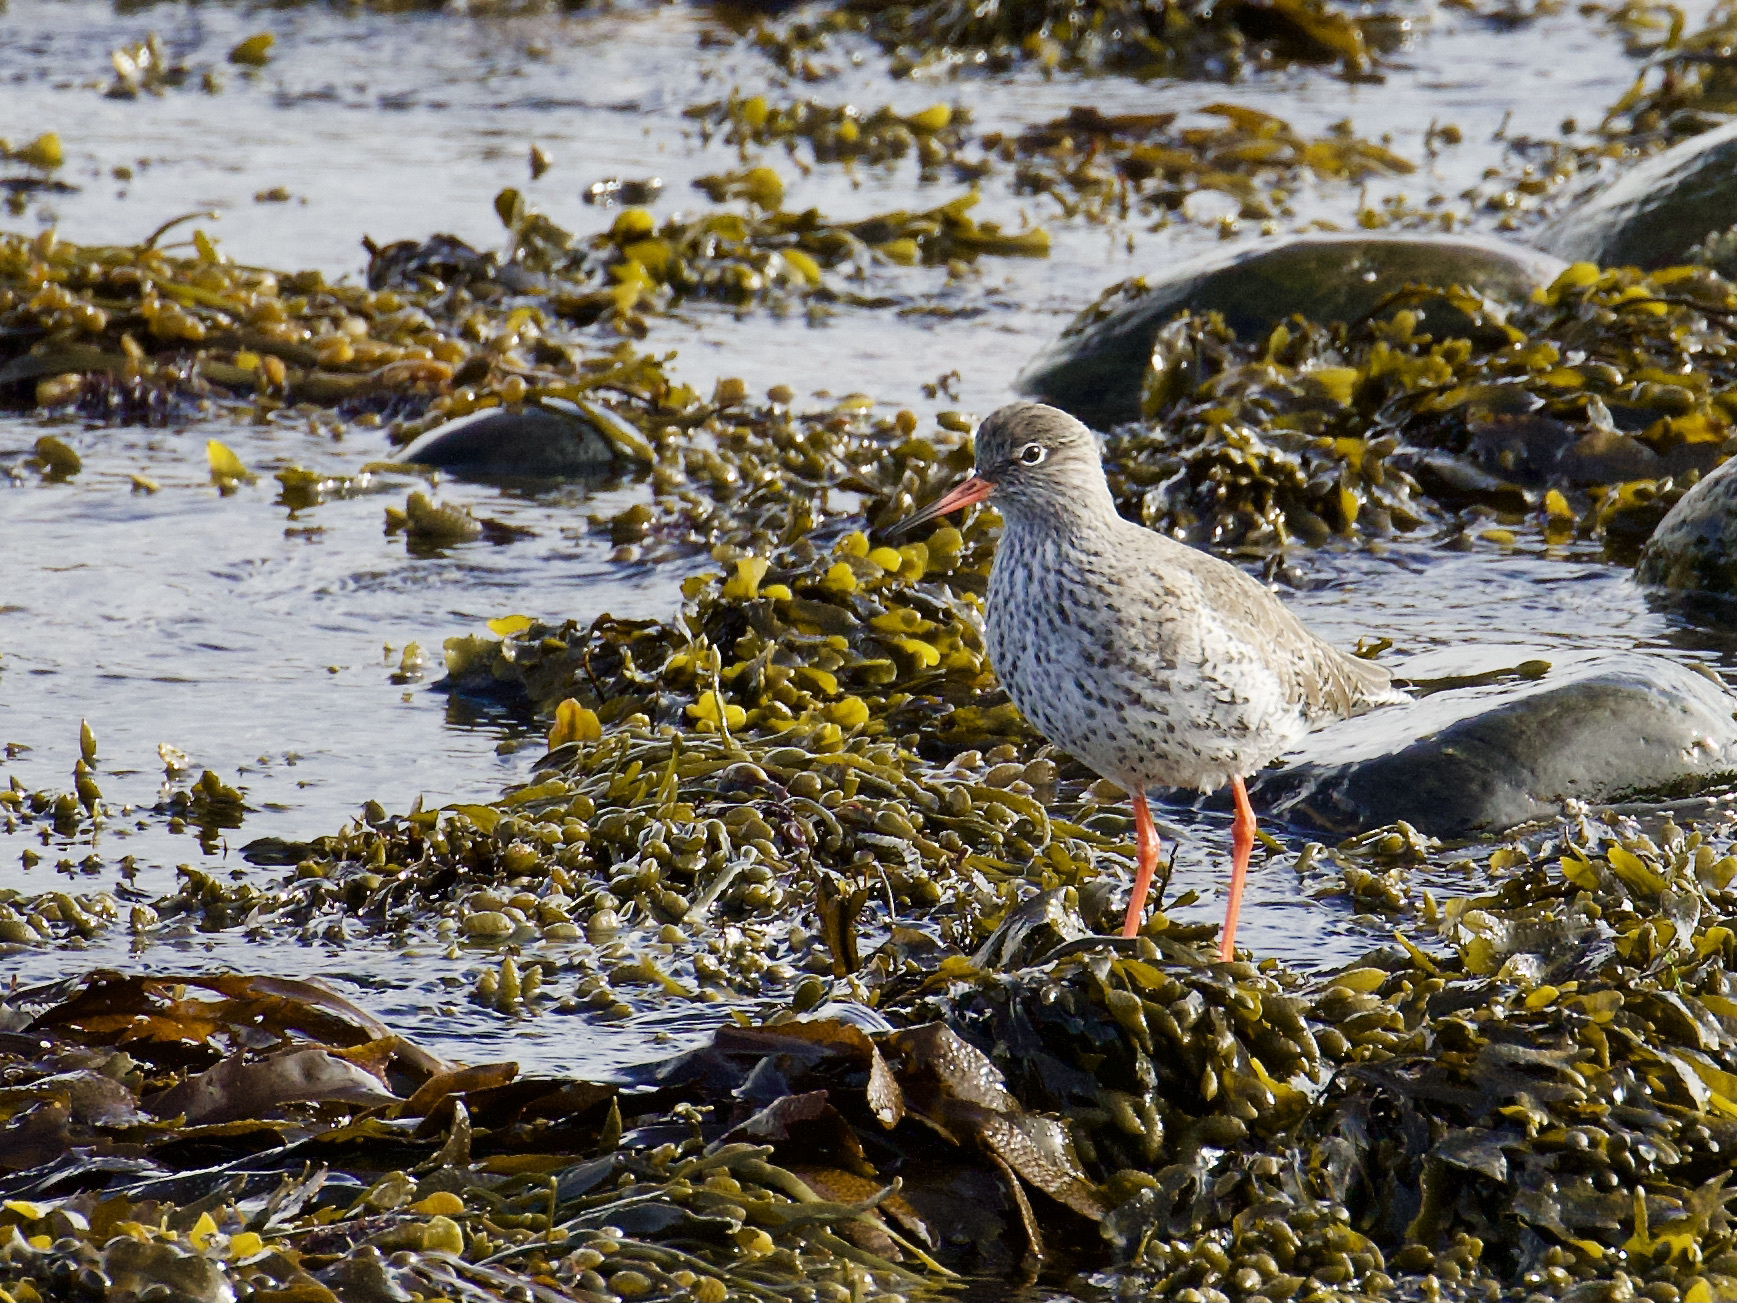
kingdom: Animalia
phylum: Chordata
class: Aves
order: Charadriiformes
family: Scolopacidae
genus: Tringa
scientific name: Tringa totanus
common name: Common redshank
